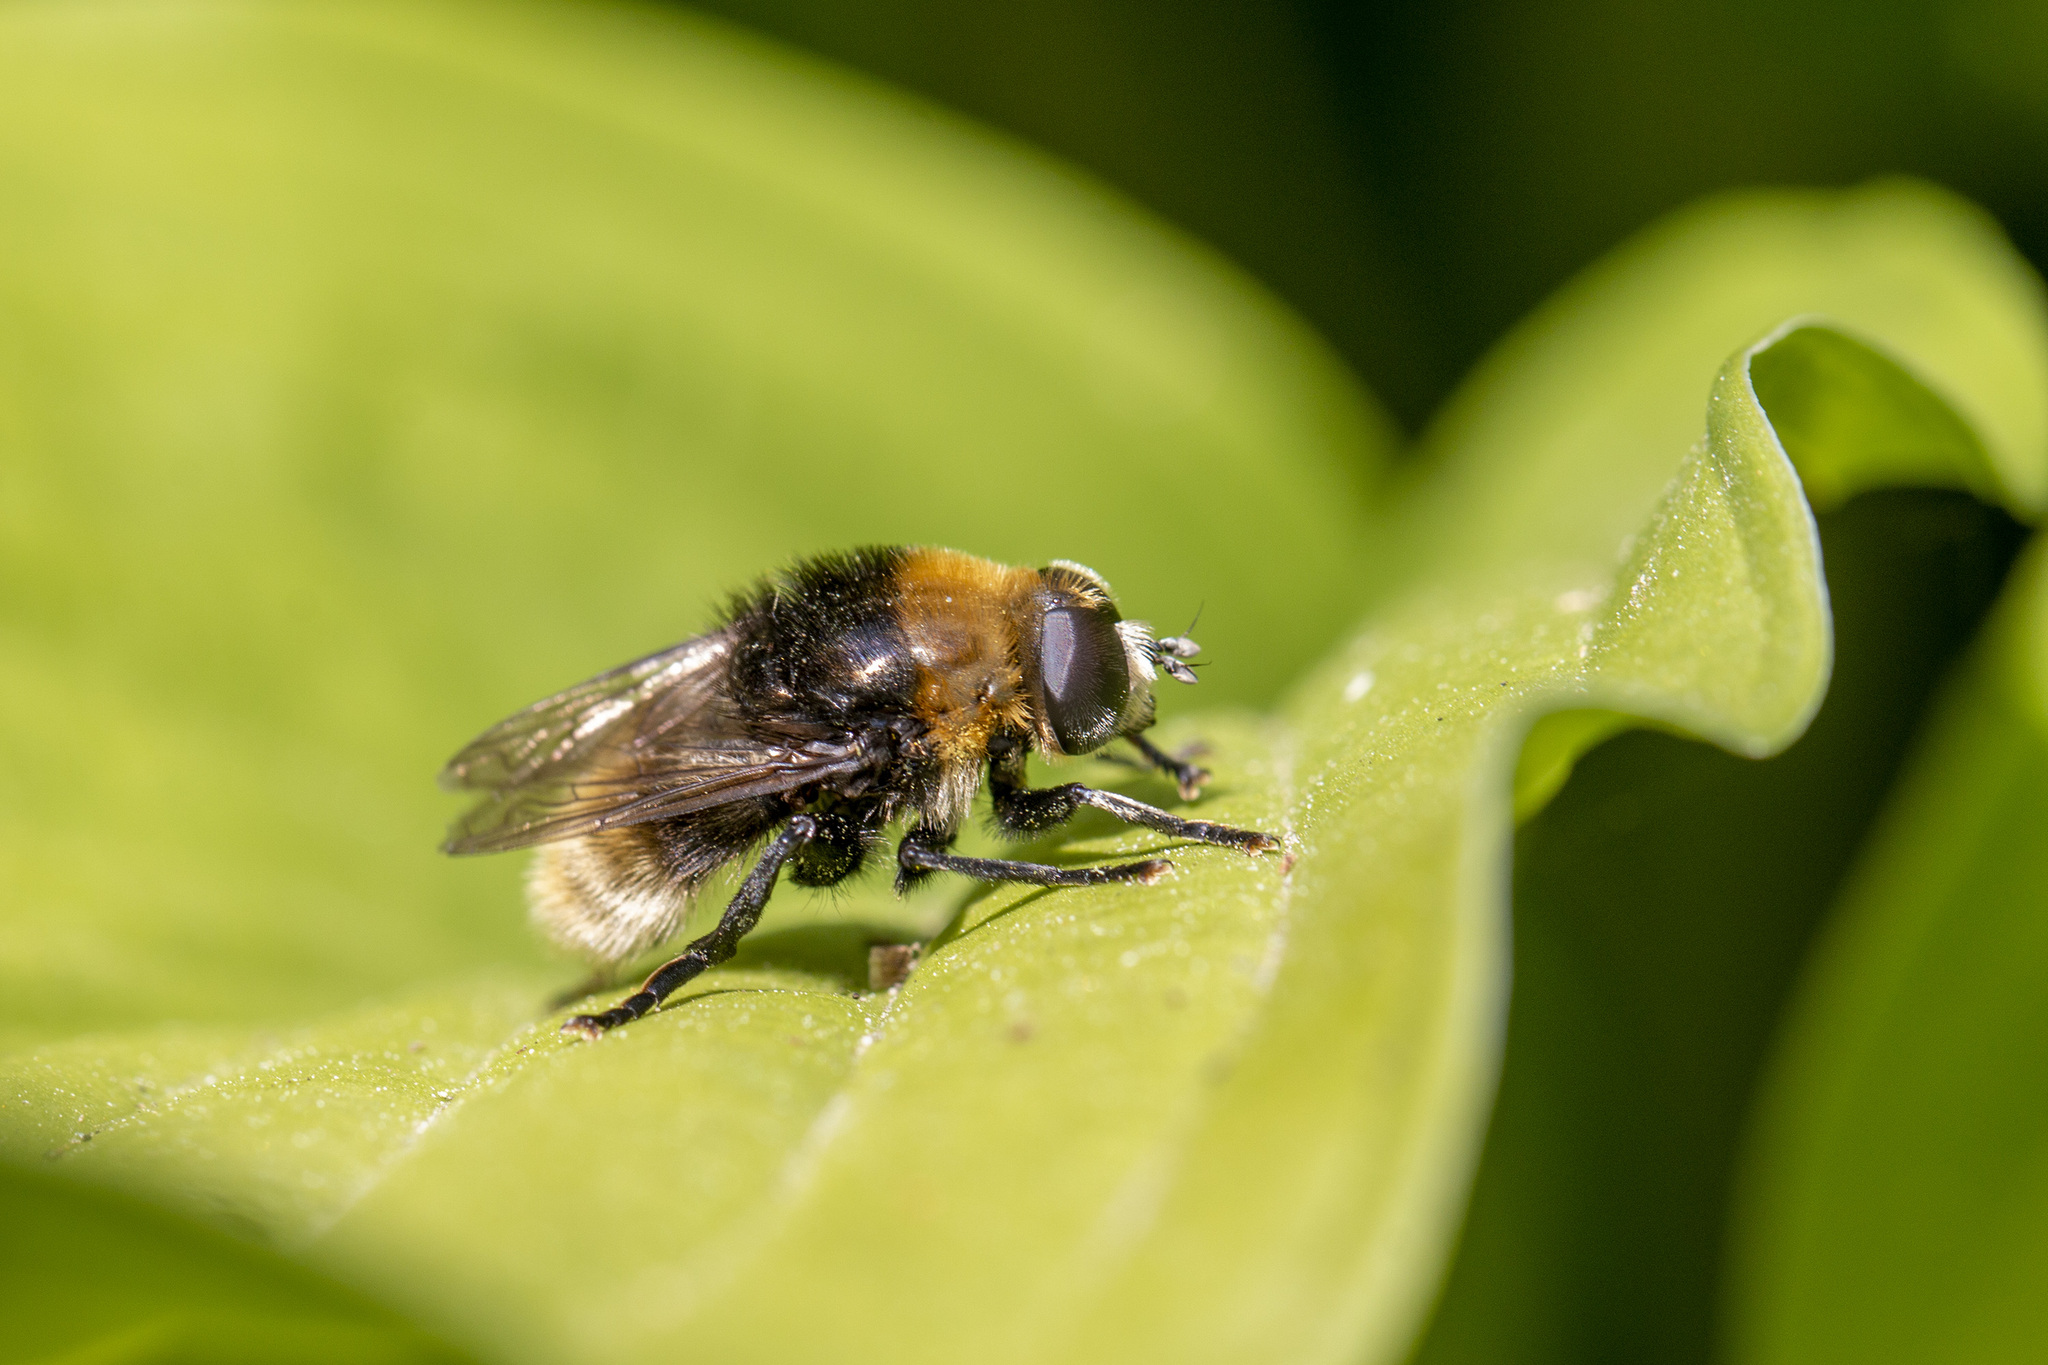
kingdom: Animalia
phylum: Arthropoda
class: Insecta
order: Diptera
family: Syrphidae
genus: Merodon
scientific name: Merodon equestris
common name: Greater bulb-fly
